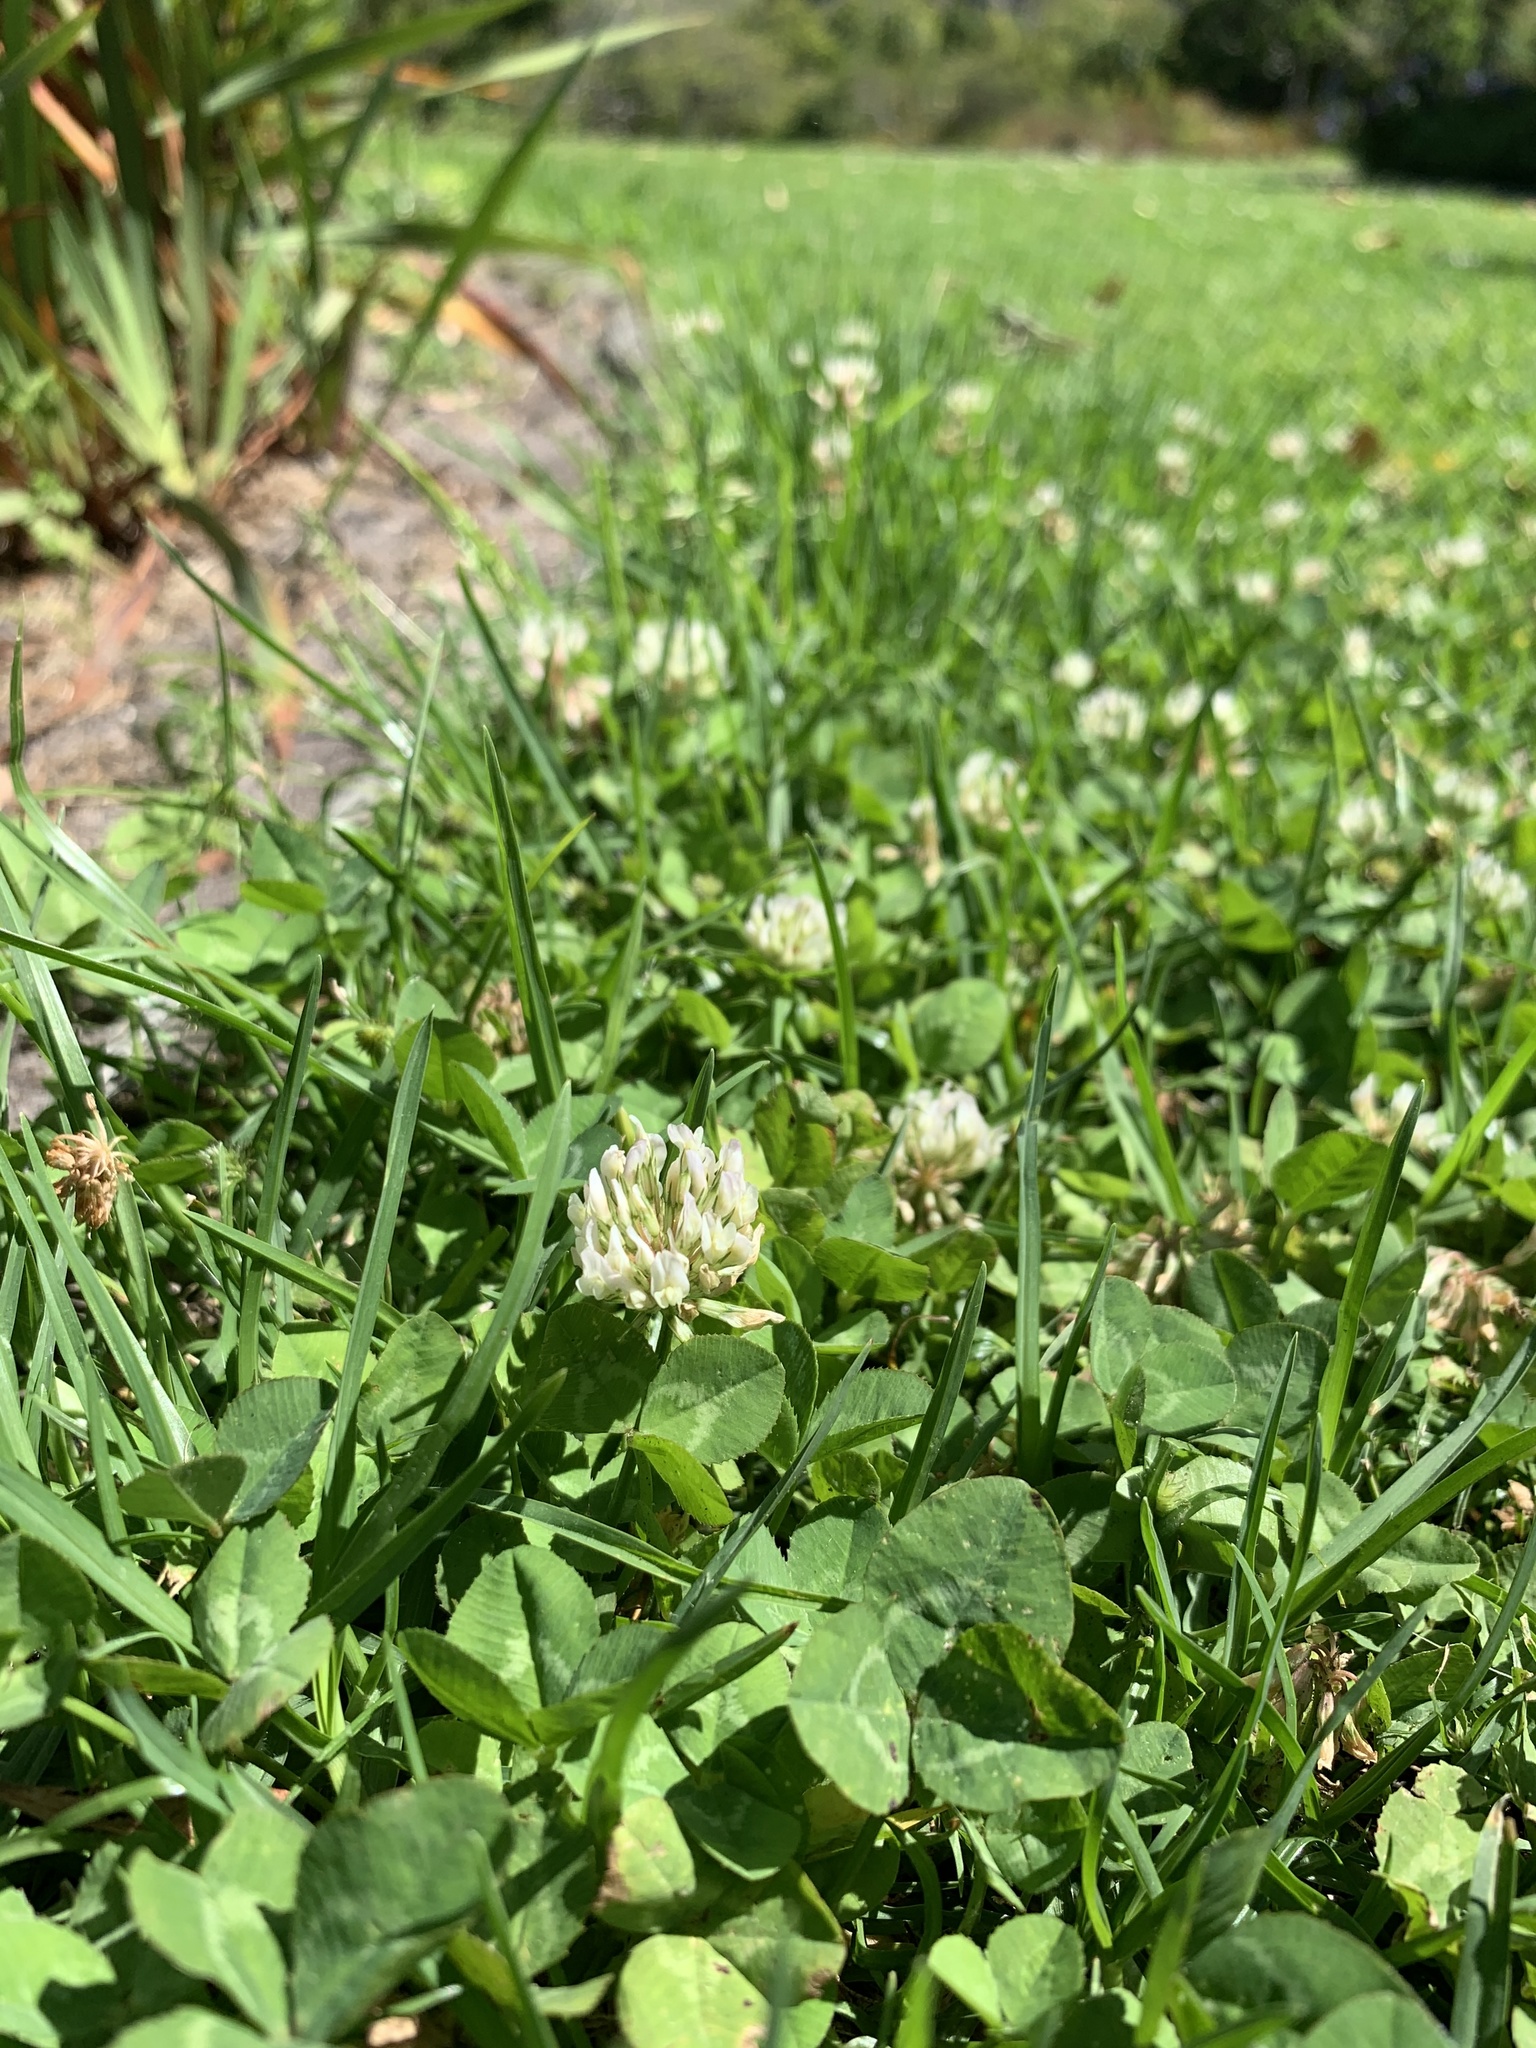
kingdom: Plantae
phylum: Tracheophyta
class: Magnoliopsida
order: Fabales
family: Fabaceae
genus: Trifolium
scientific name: Trifolium repens
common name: White clover
